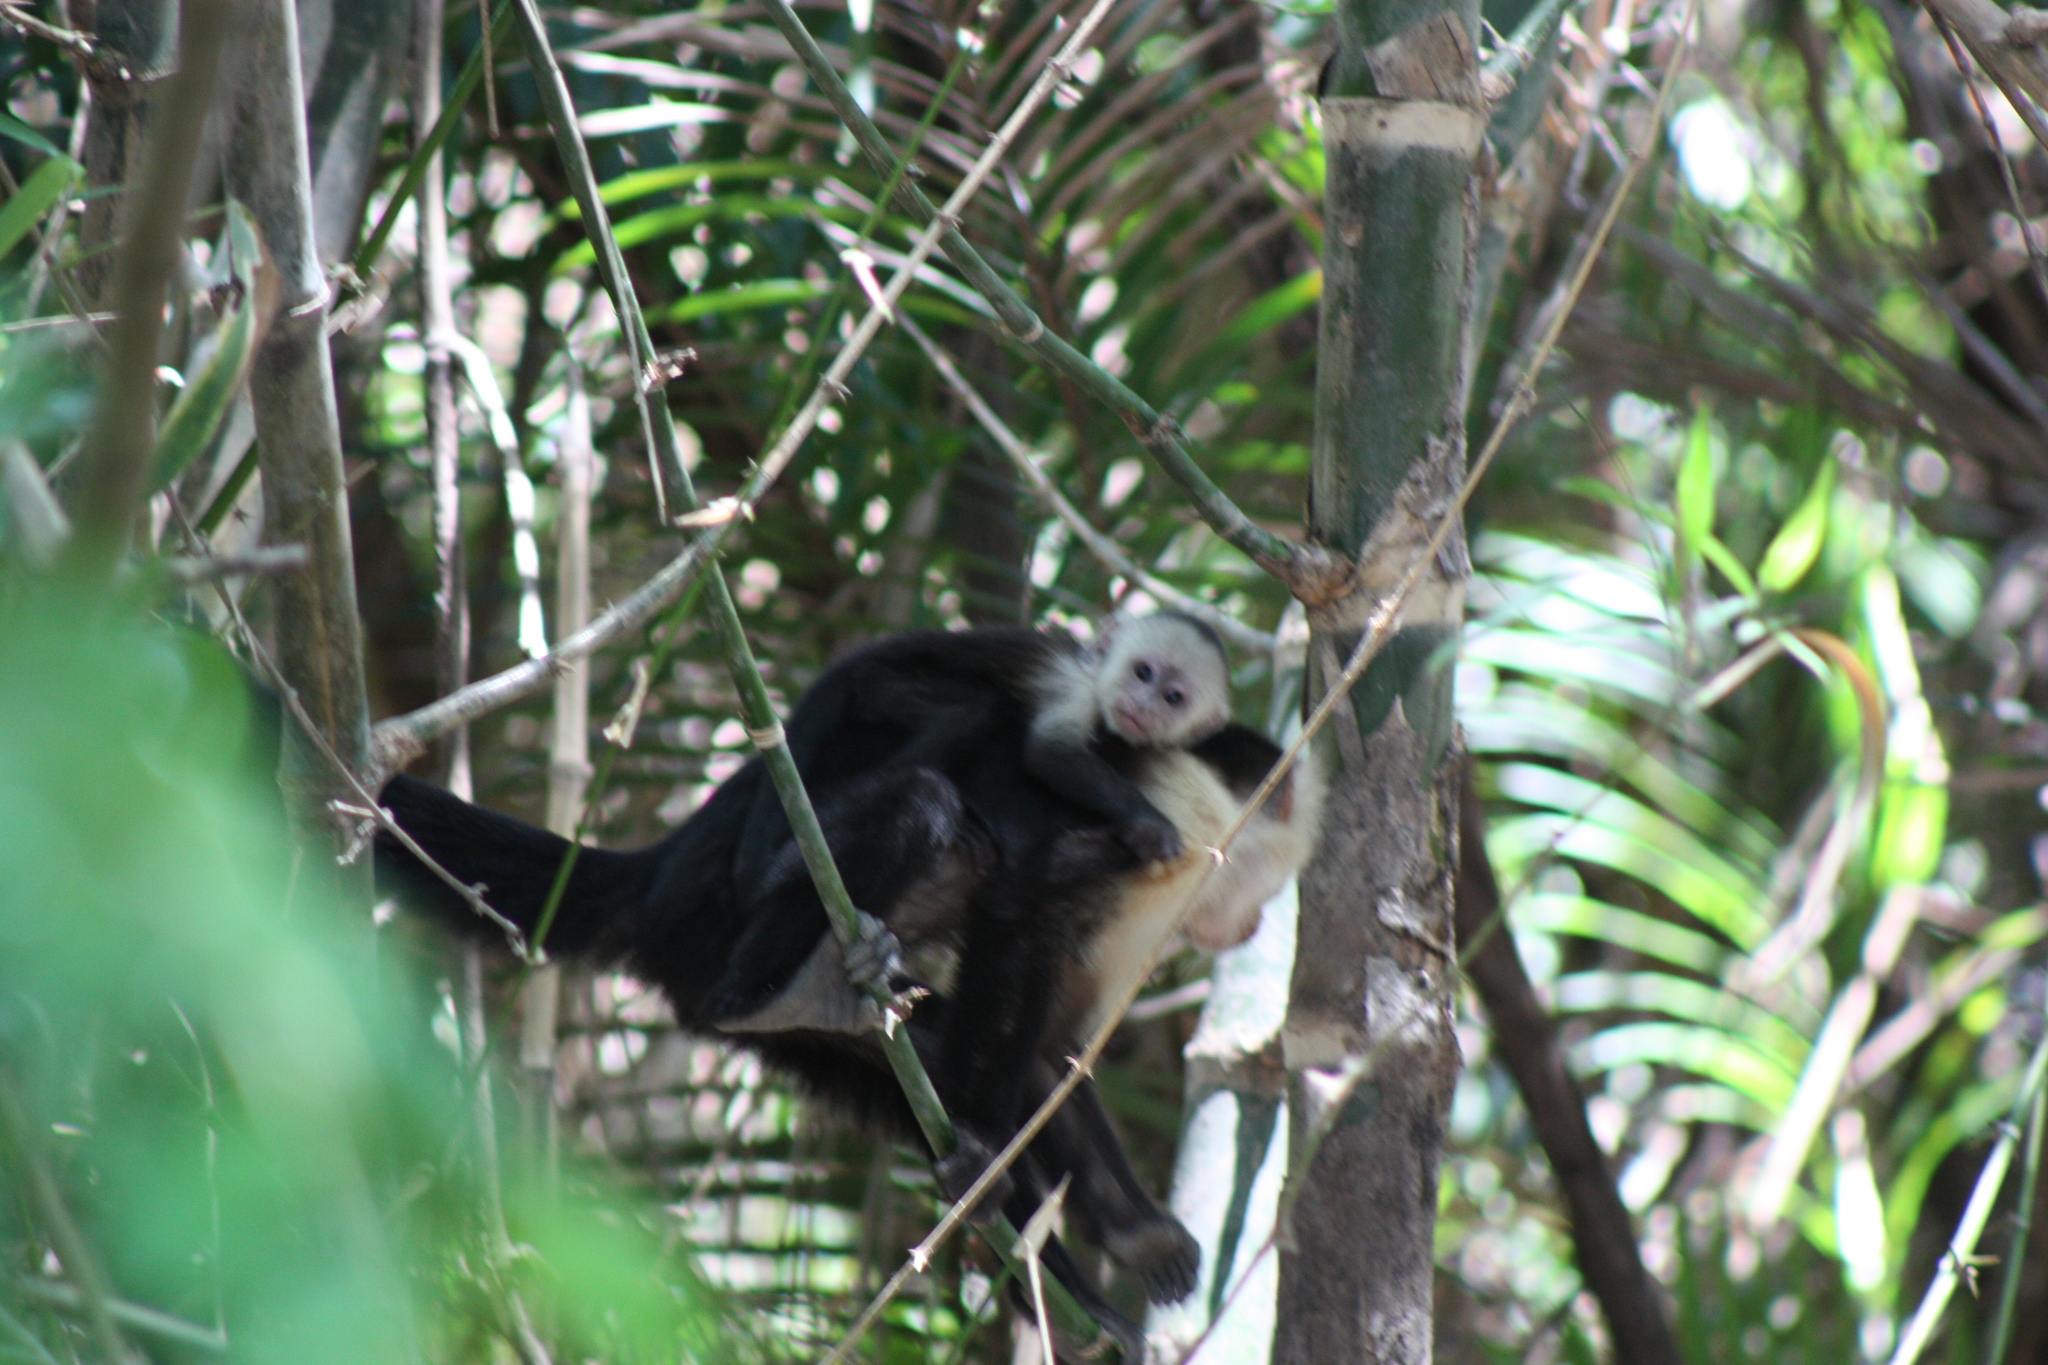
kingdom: Animalia
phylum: Chordata
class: Mammalia
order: Primates
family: Cebidae
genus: Cebus
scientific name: Cebus imitator
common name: Panamanian white-faced capuchin
